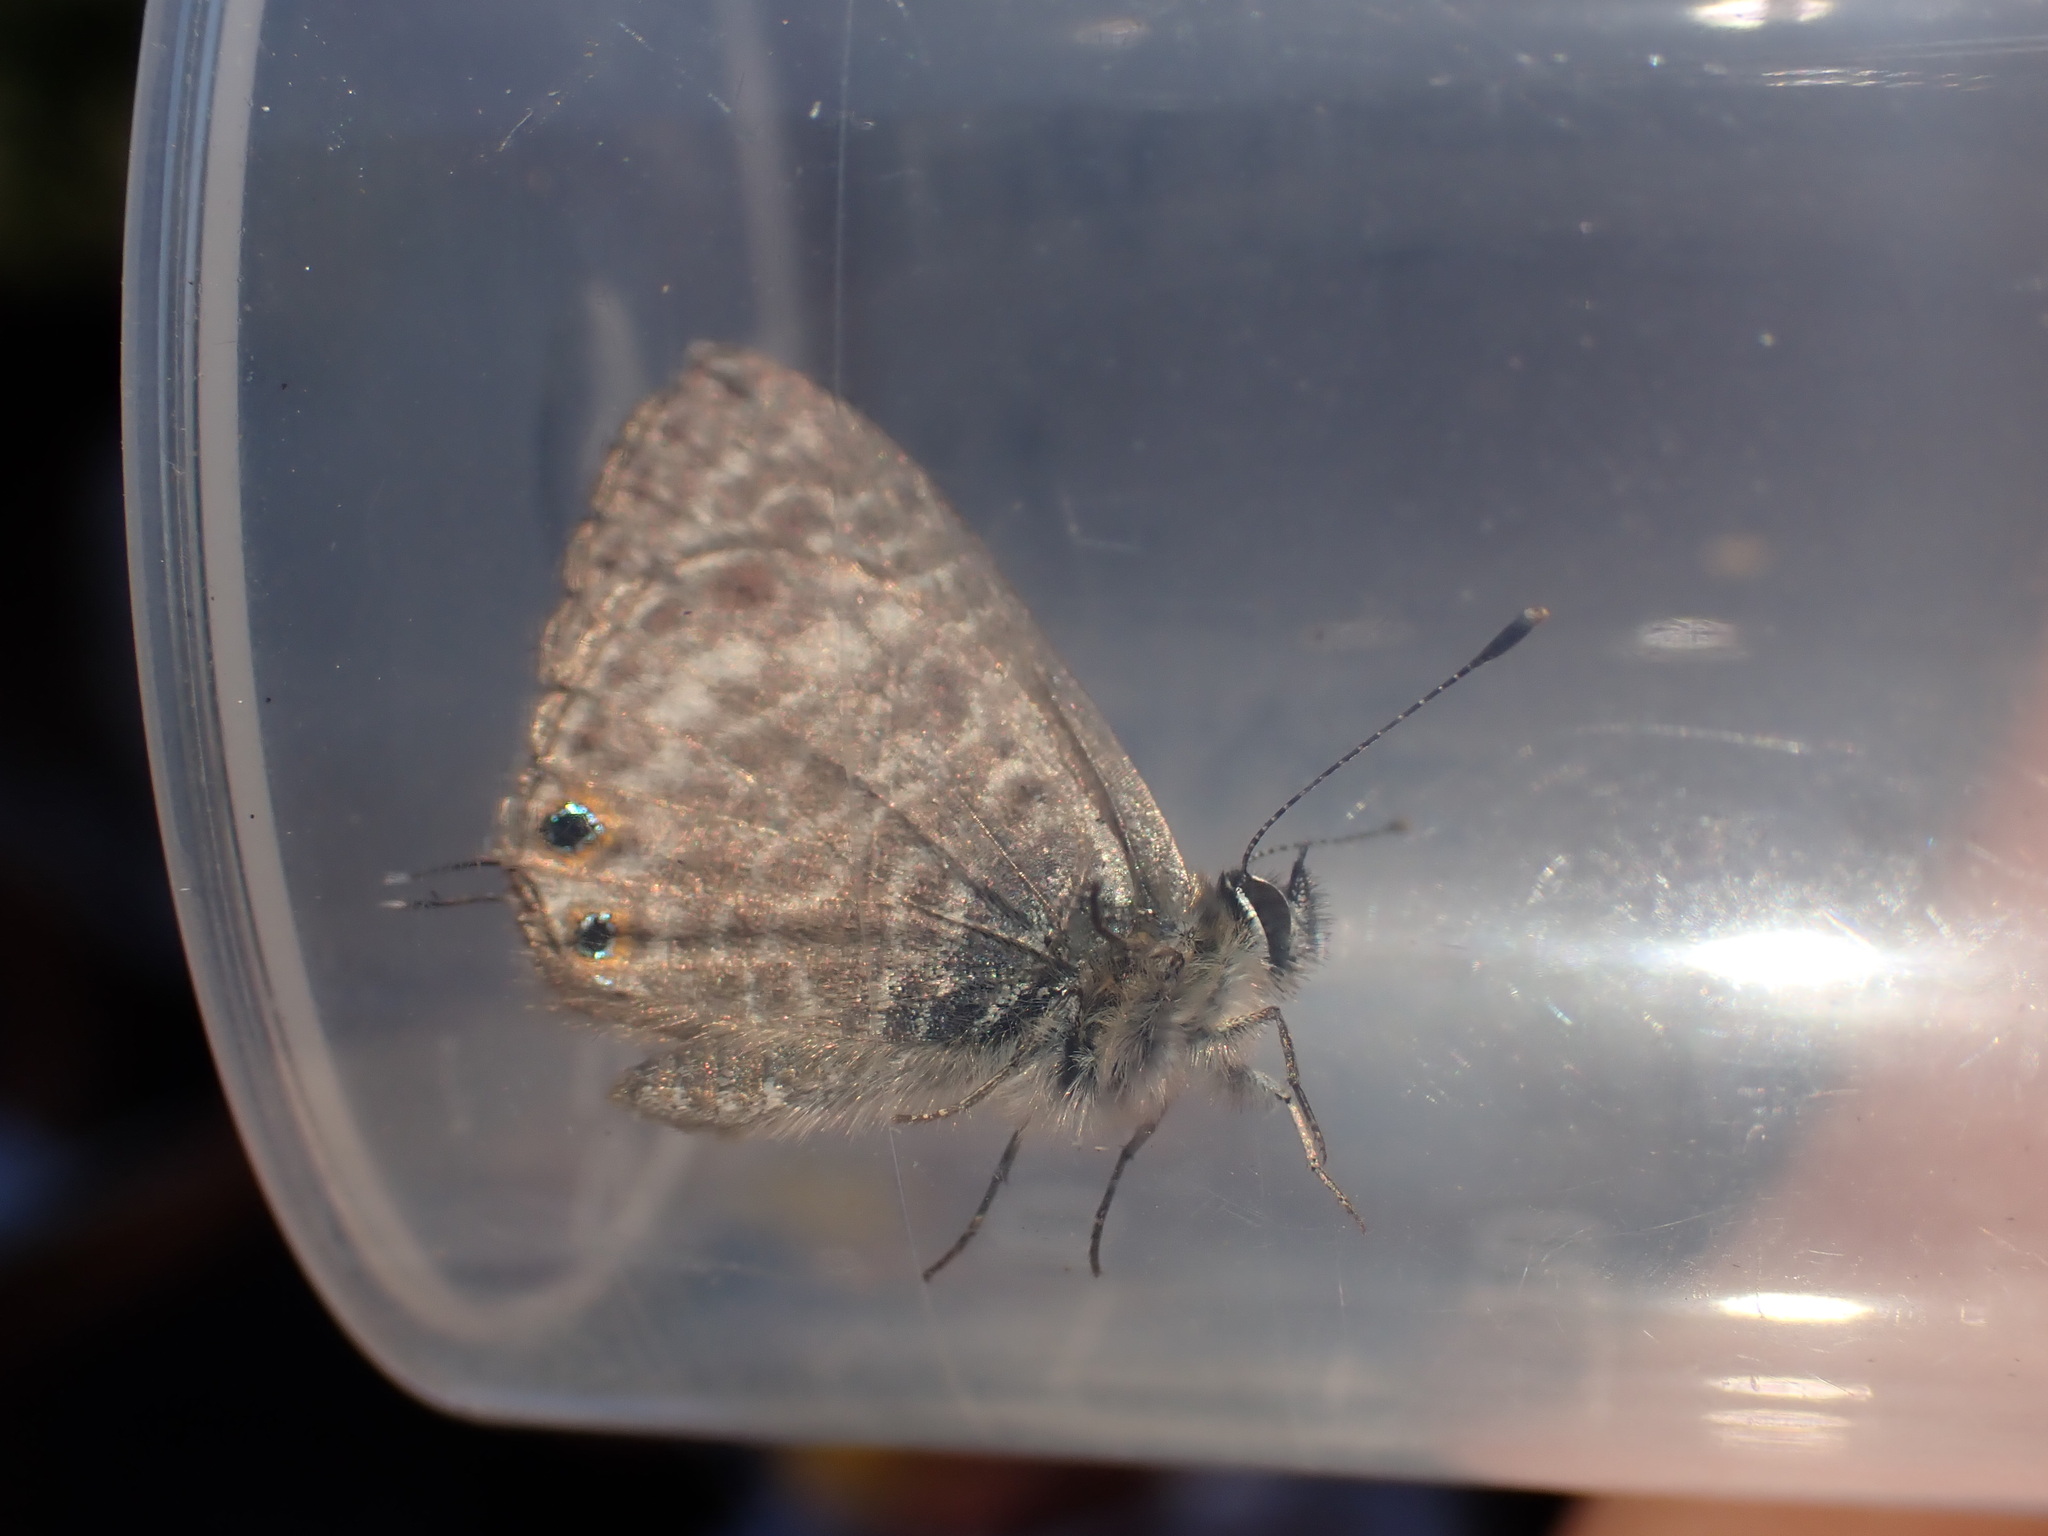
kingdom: Animalia
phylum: Arthropoda
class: Insecta
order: Lepidoptera
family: Lycaenidae
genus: Leptotes
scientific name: Leptotes pirithous
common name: Lang's short-tailed blue
